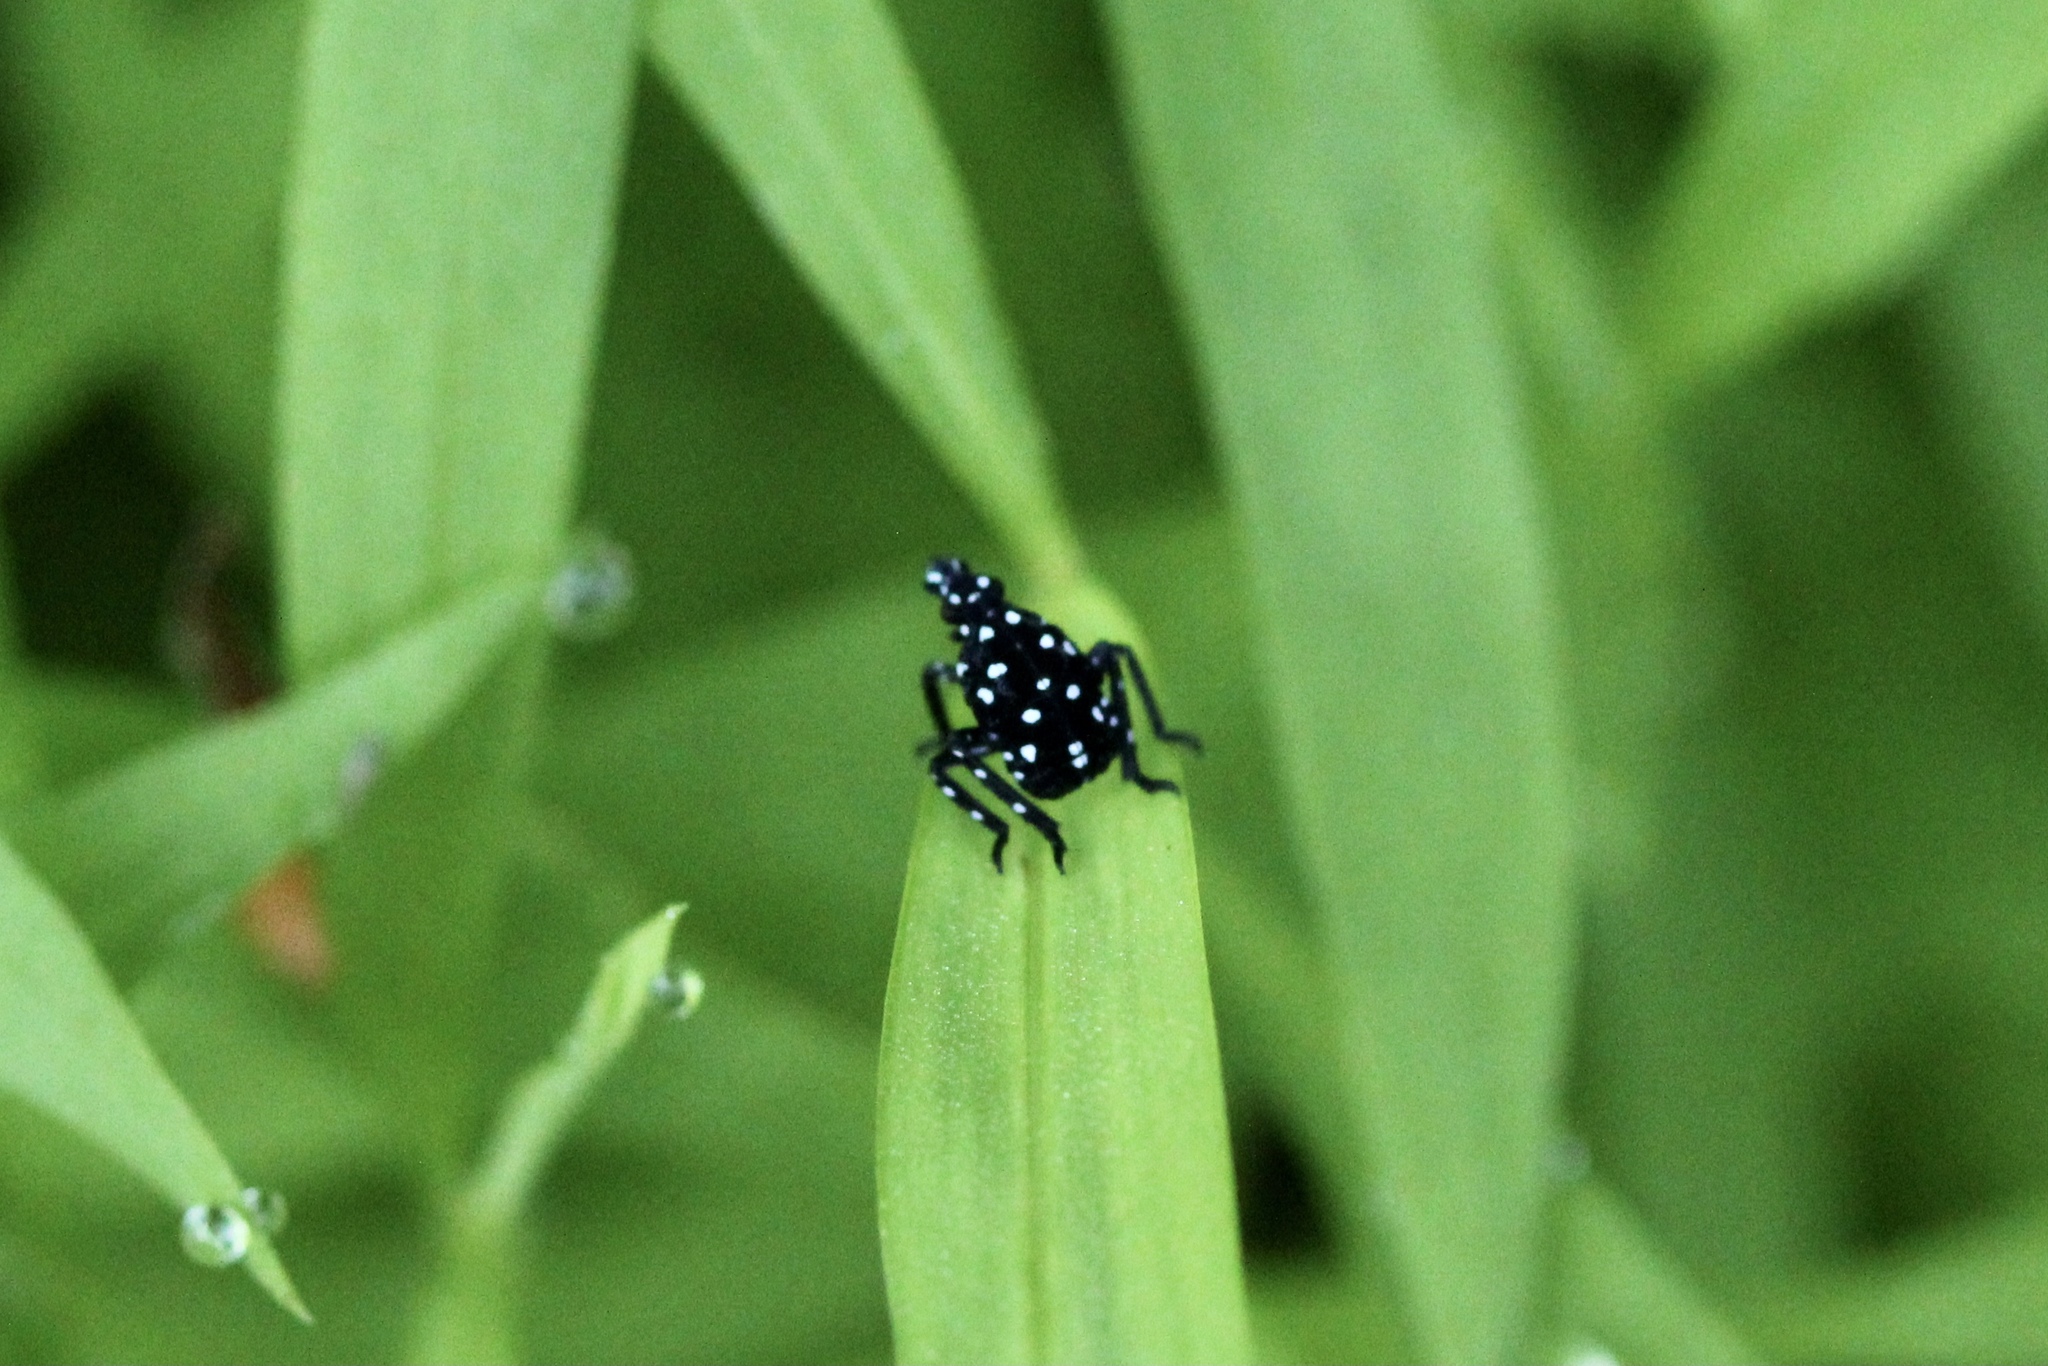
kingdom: Animalia
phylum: Arthropoda
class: Insecta
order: Hemiptera
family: Fulgoridae
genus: Lycorma
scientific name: Lycorma delicatula
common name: Spotted lanternfly
